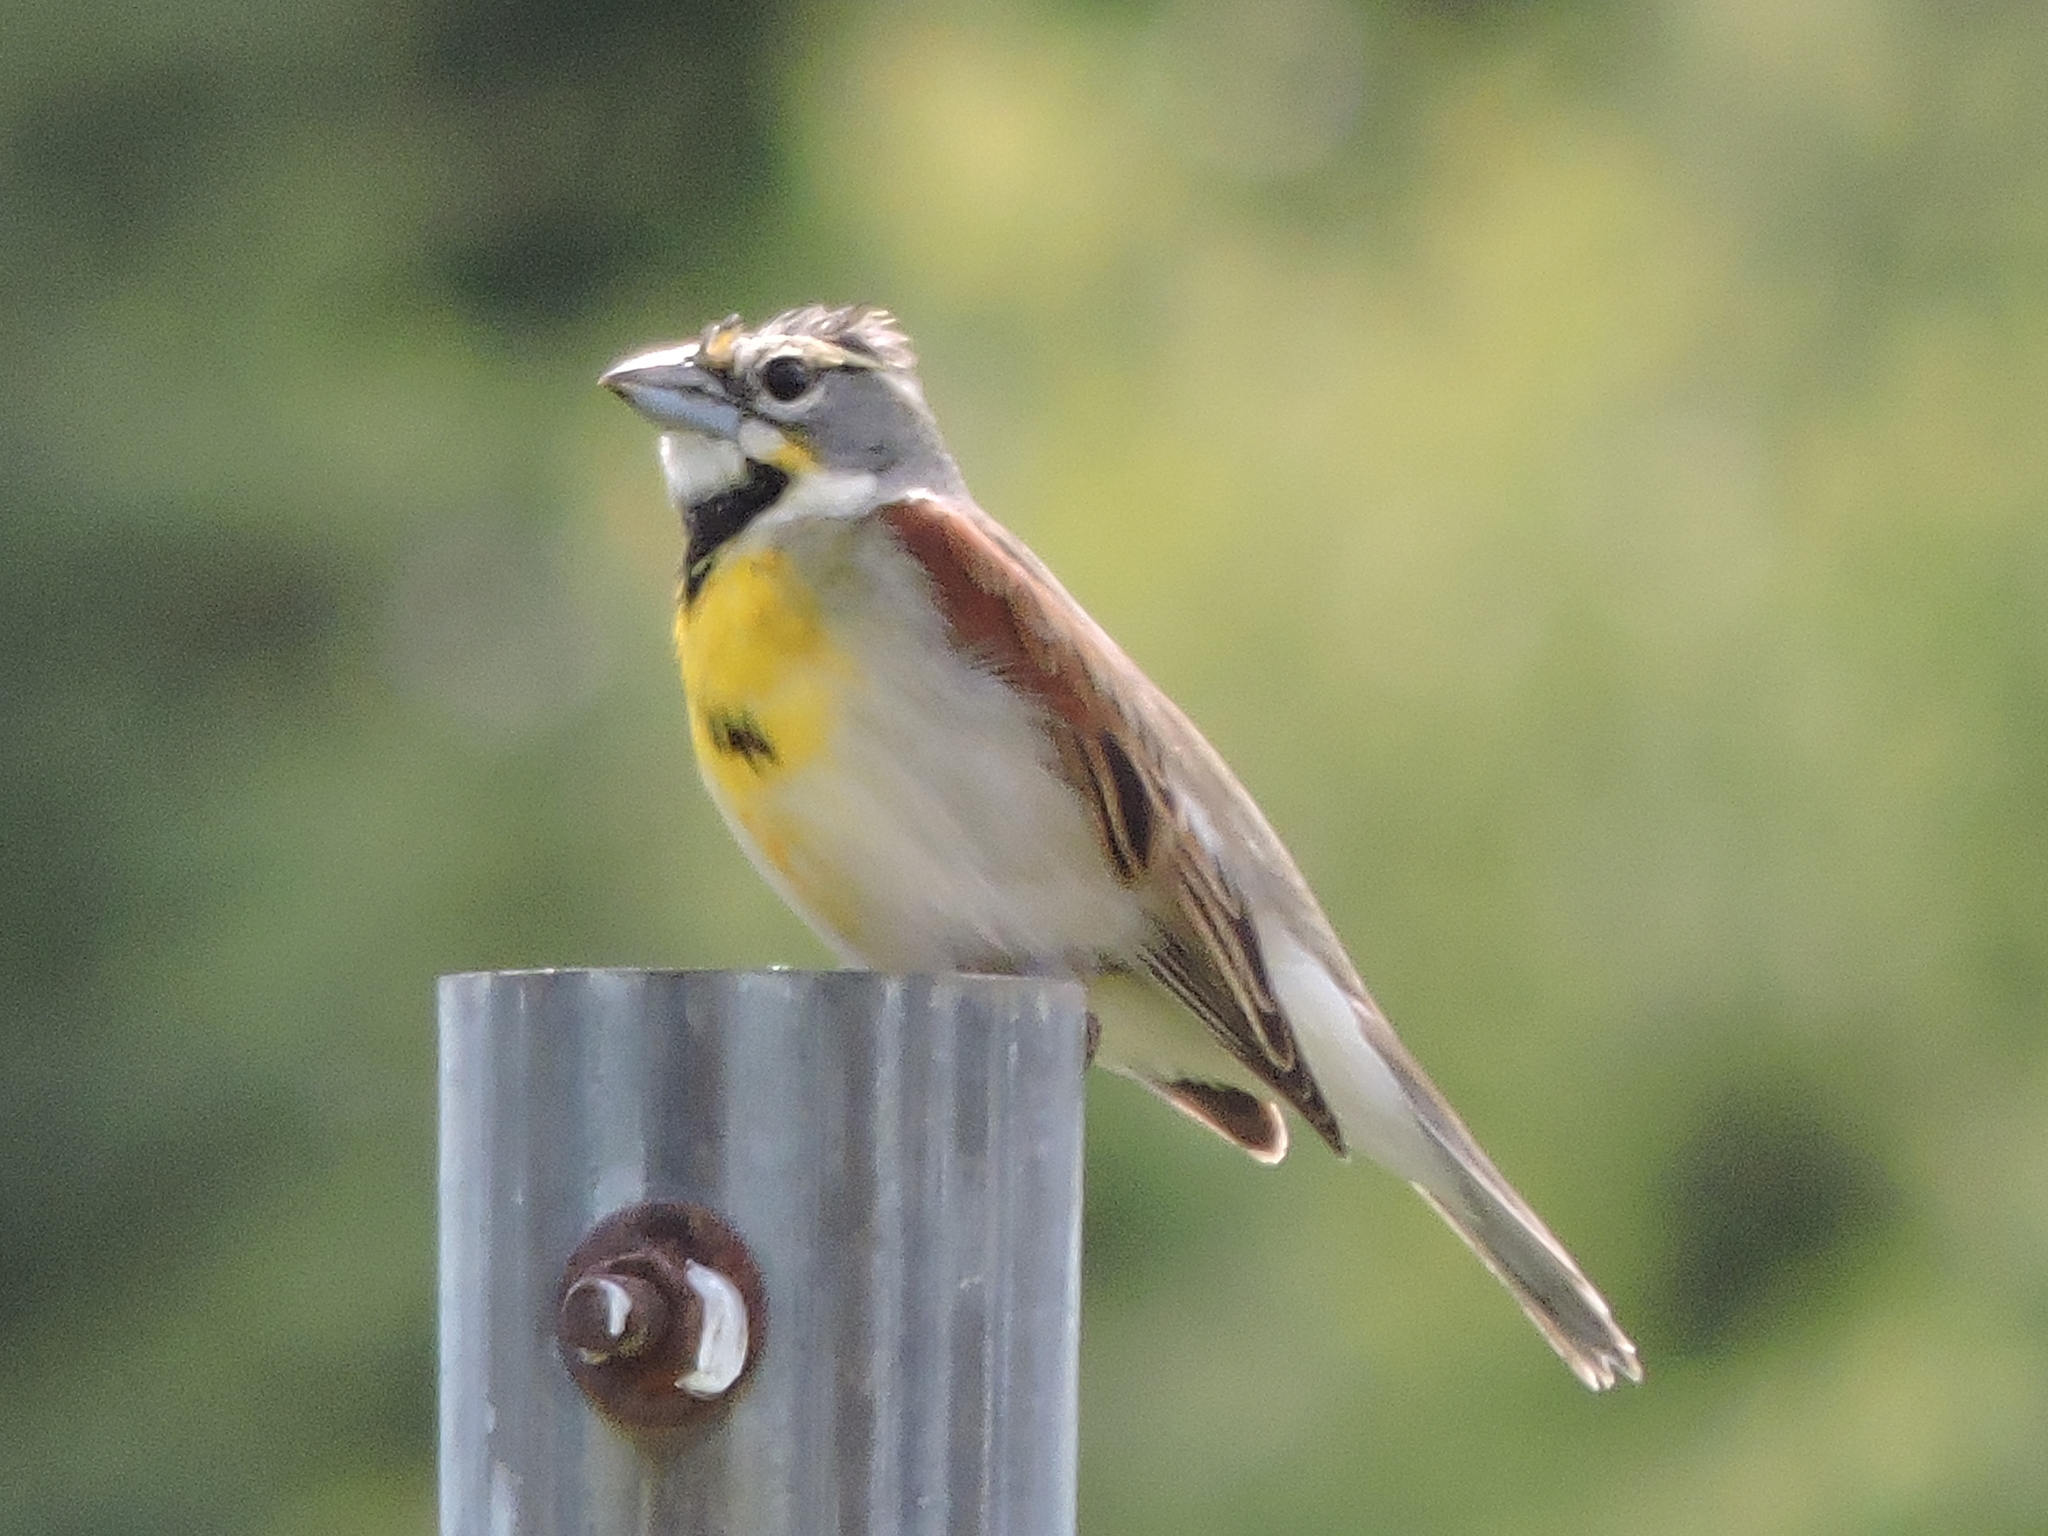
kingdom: Animalia
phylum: Chordata
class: Aves
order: Passeriformes
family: Cardinalidae
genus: Spiza
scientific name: Spiza americana
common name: Dickcissel
